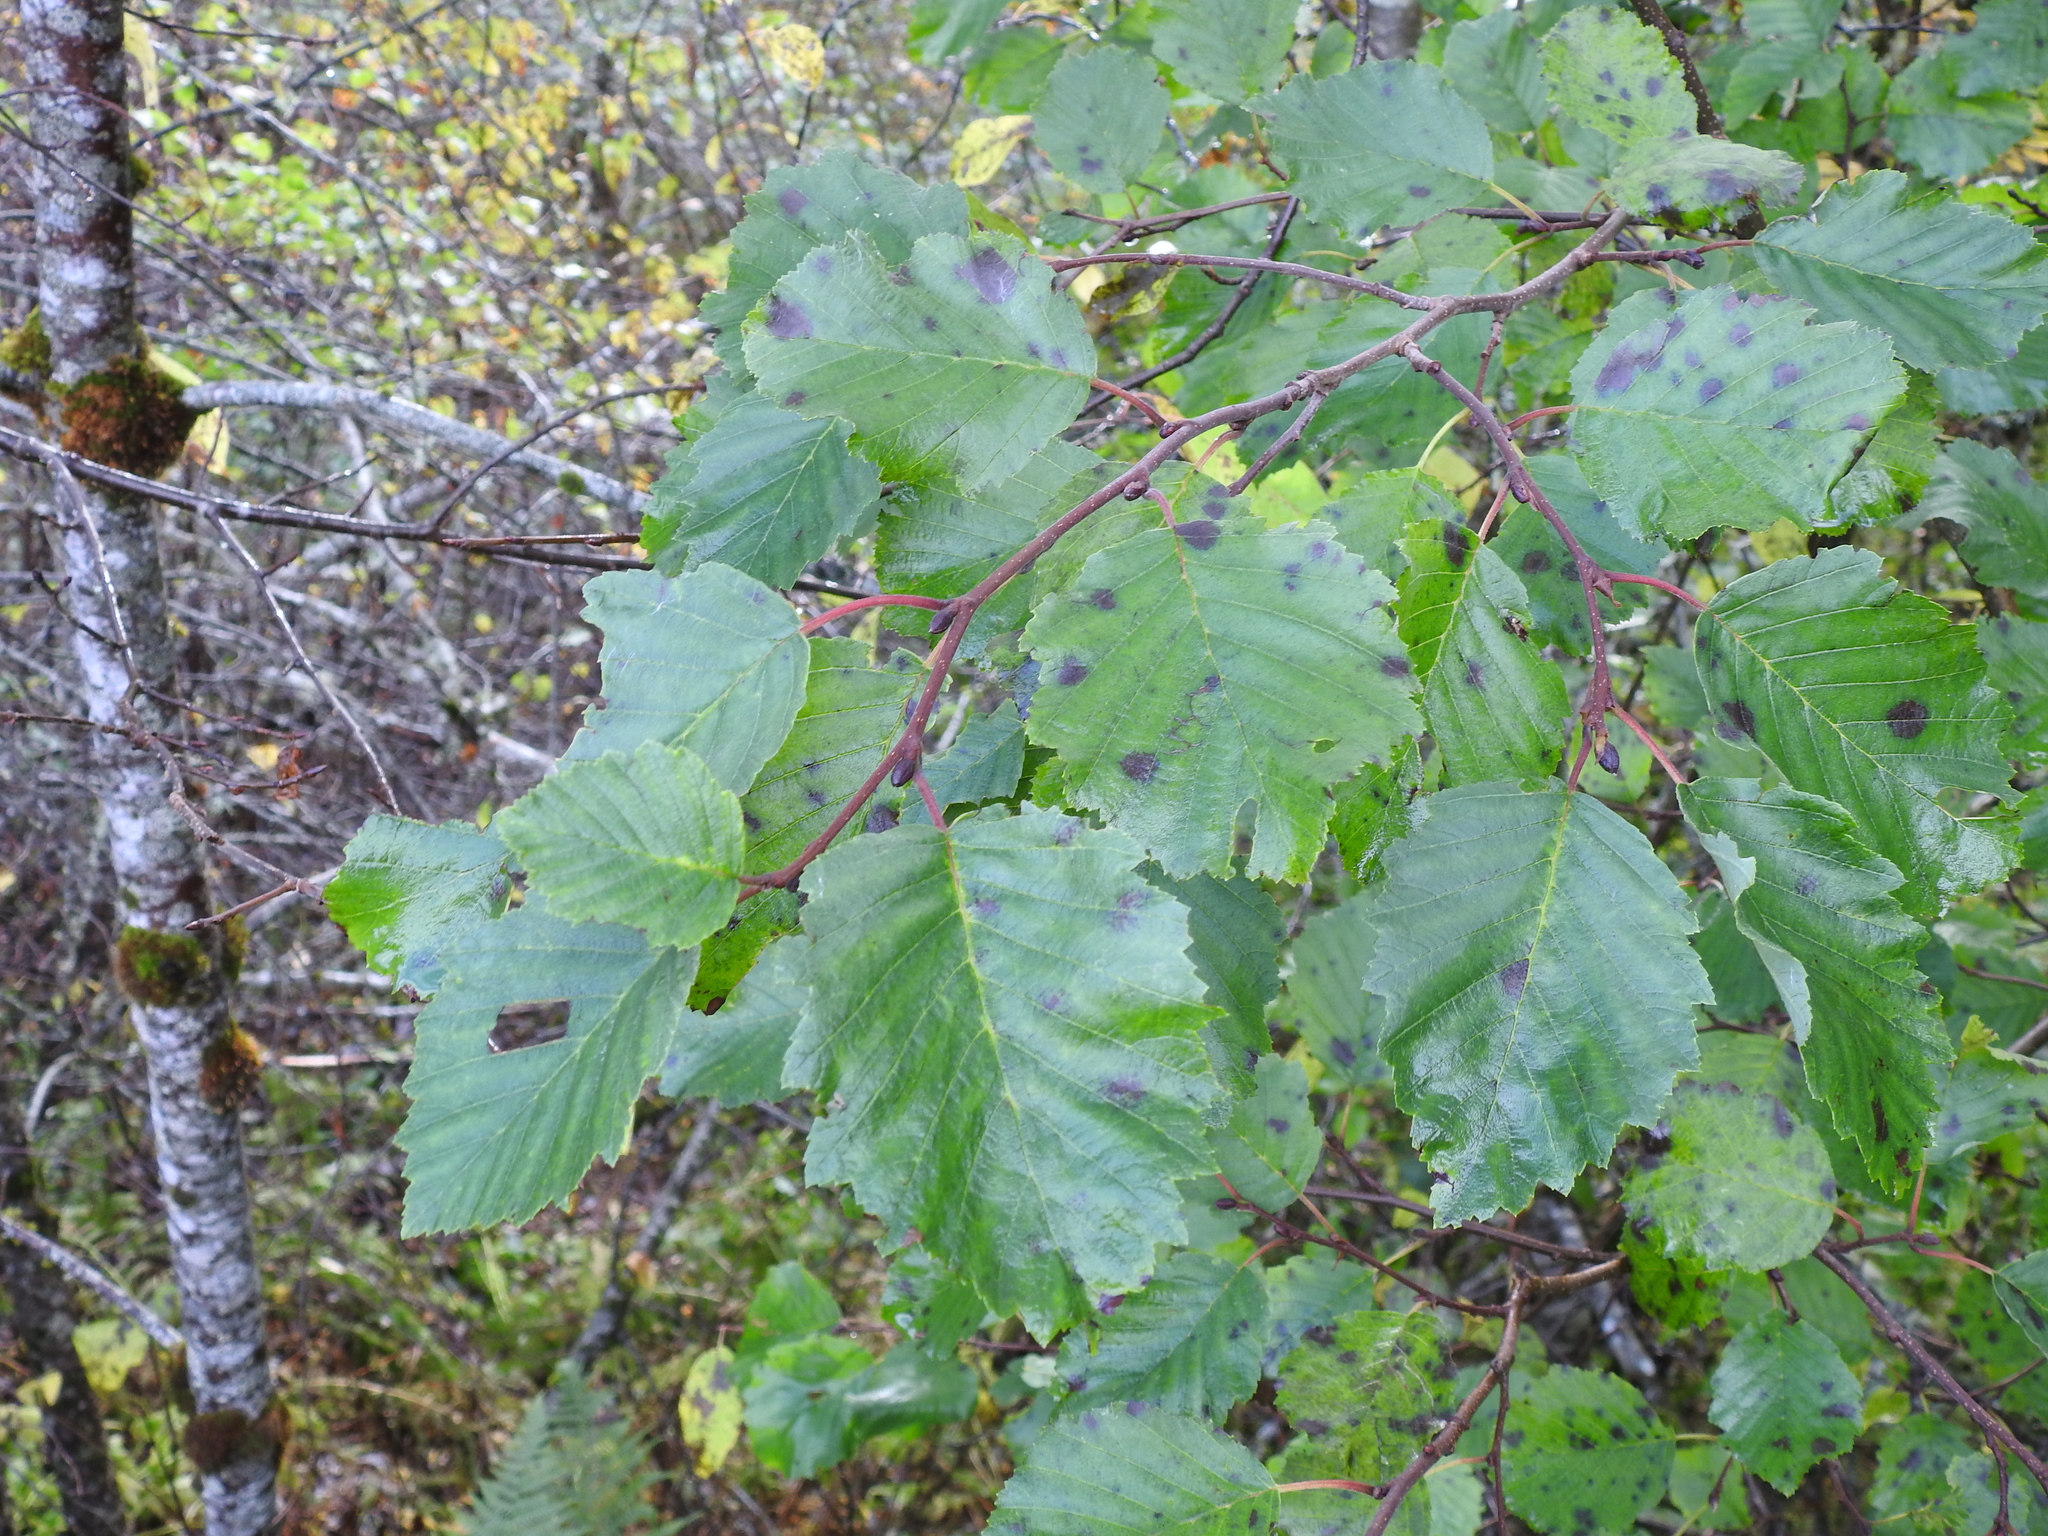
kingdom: Plantae
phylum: Tracheophyta
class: Magnoliopsida
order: Fagales
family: Betulaceae
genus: Alnus
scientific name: Alnus incana
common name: Grey alder
